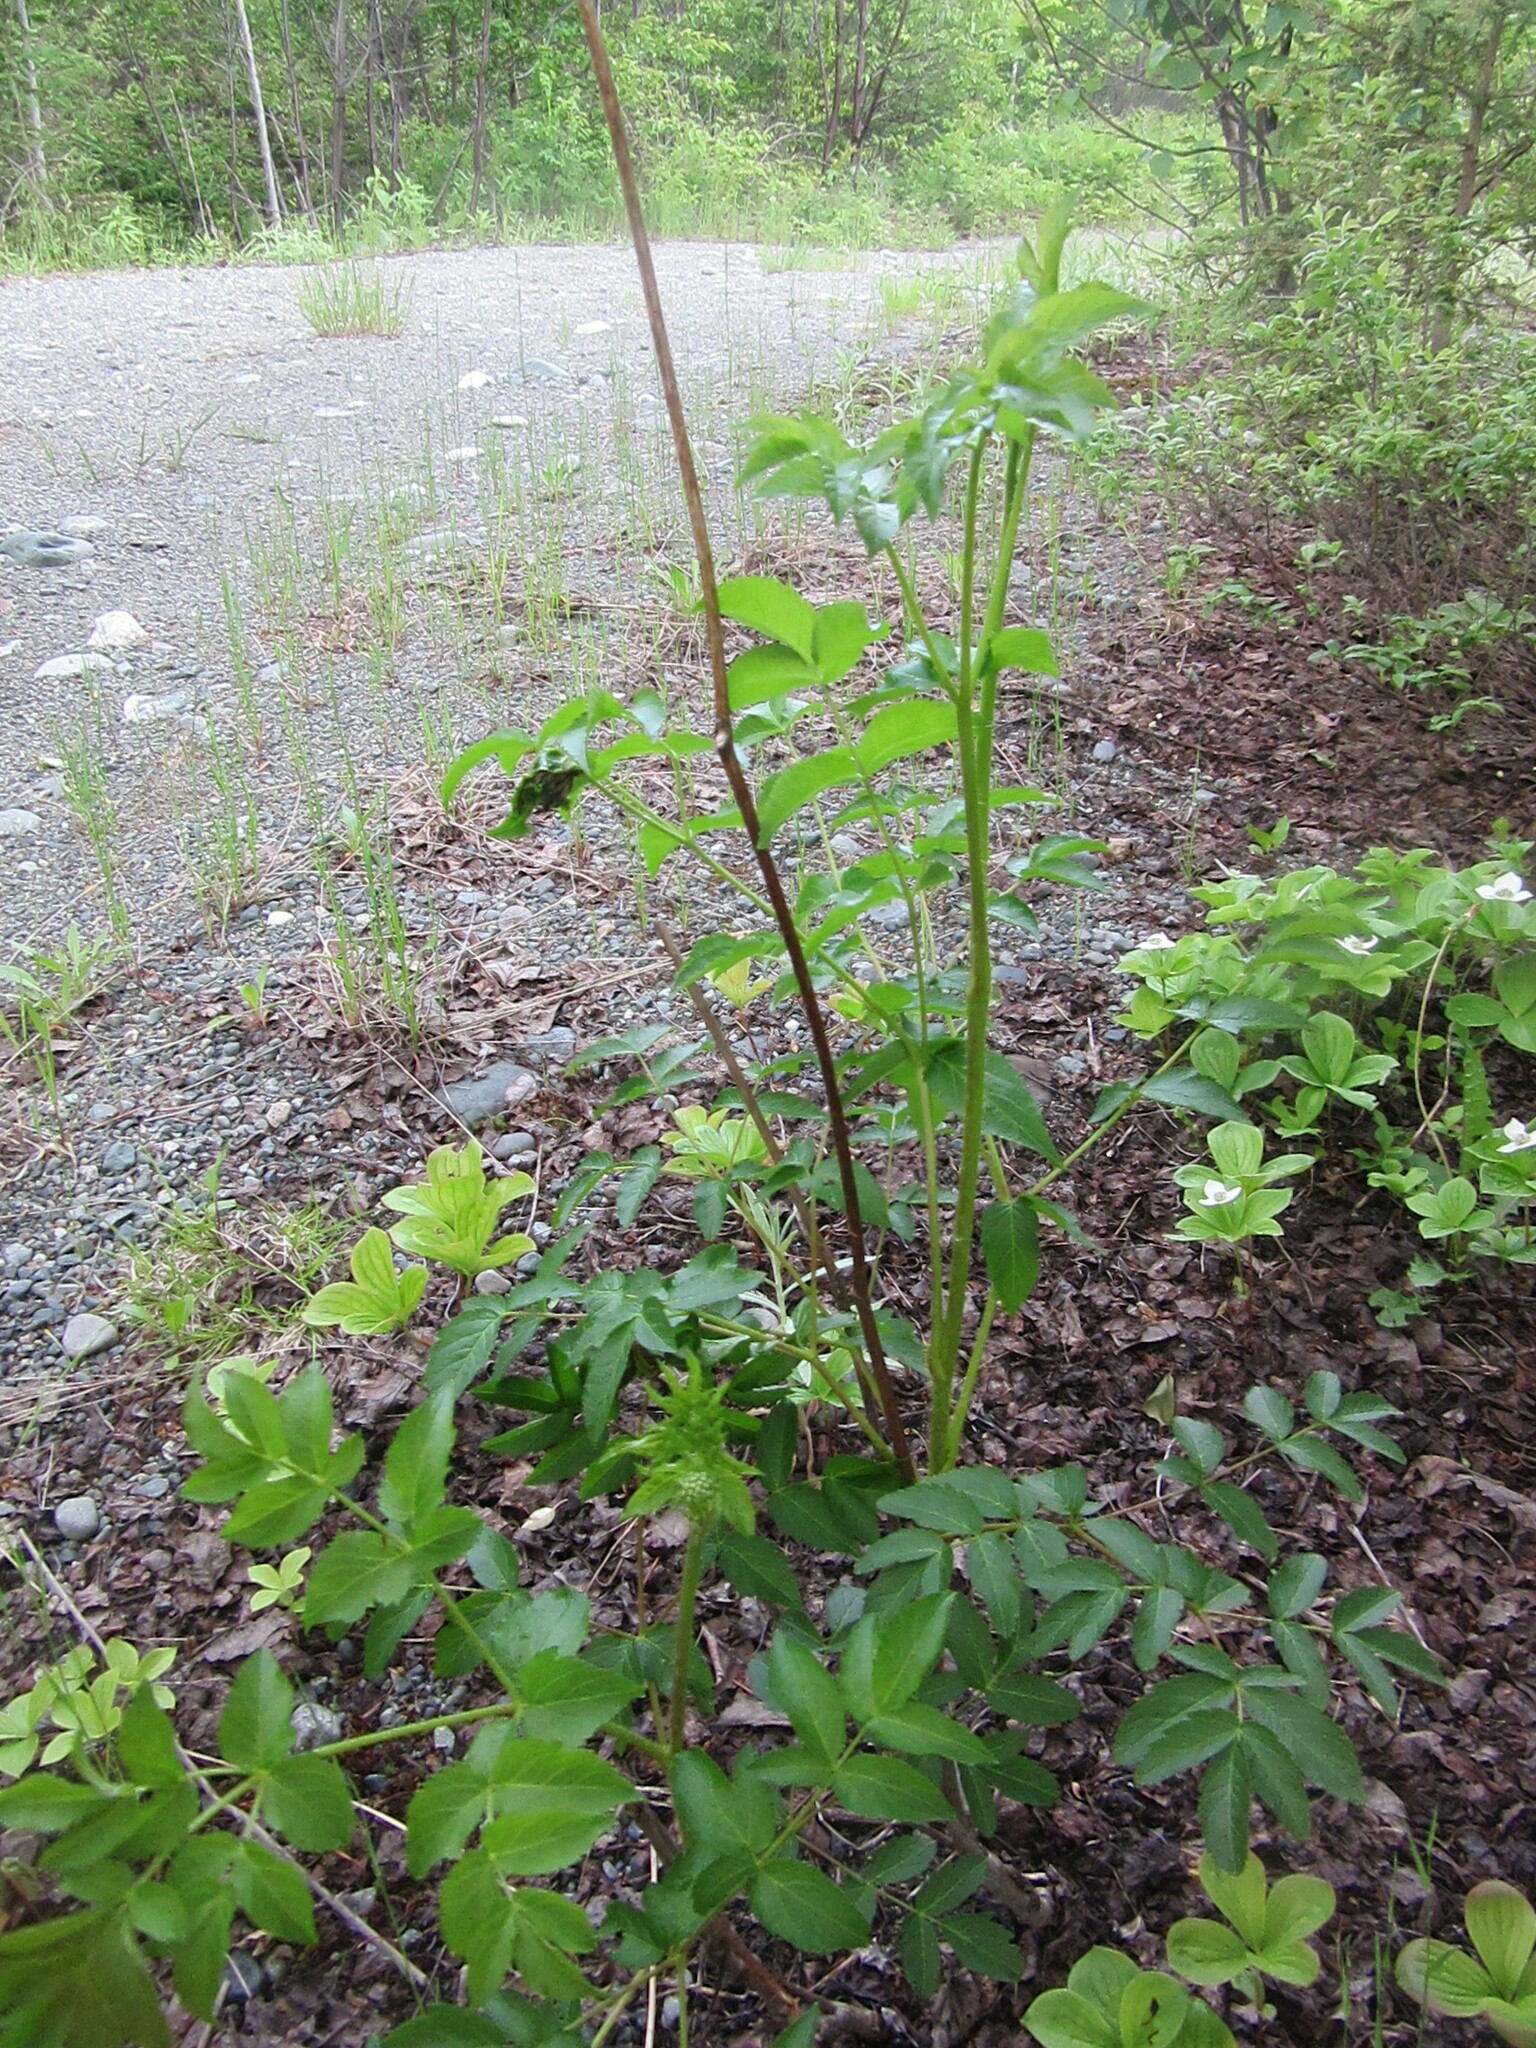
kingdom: Plantae
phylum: Tracheophyta
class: Magnoliopsida
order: Apiales
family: Araliaceae
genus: Aralia
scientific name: Aralia hispida
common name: Bristly sarsaparilla
